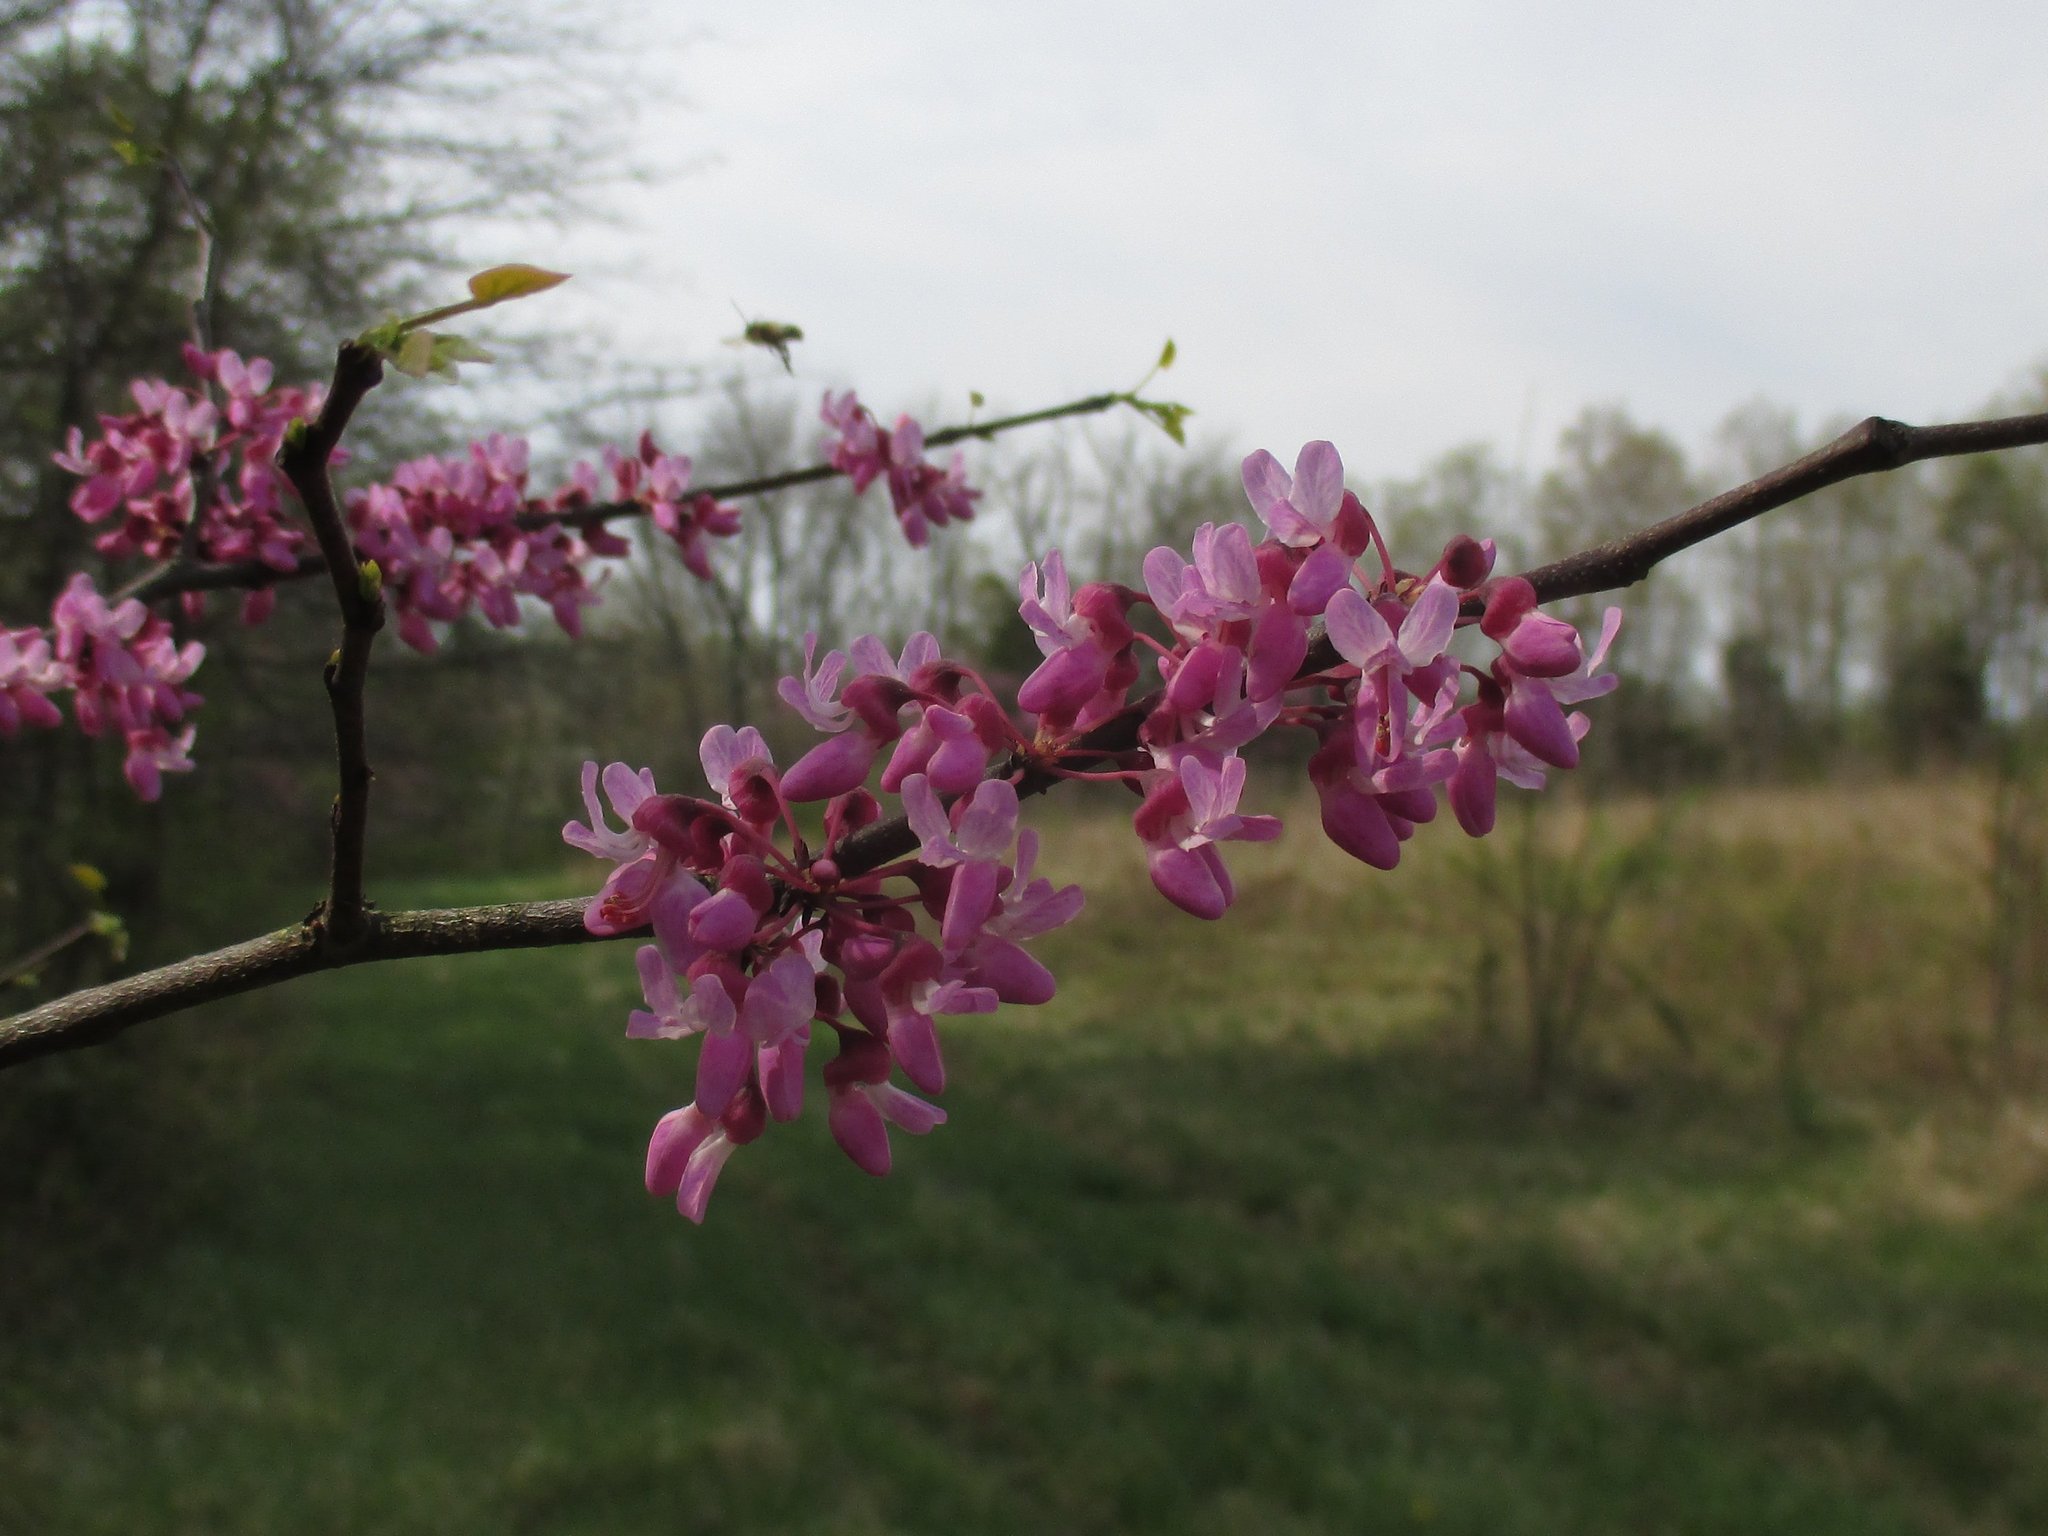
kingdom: Plantae
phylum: Tracheophyta
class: Magnoliopsida
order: Fabales
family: Fabaceae
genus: Cercis
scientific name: Cercis canadensis
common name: Eastern redbud
